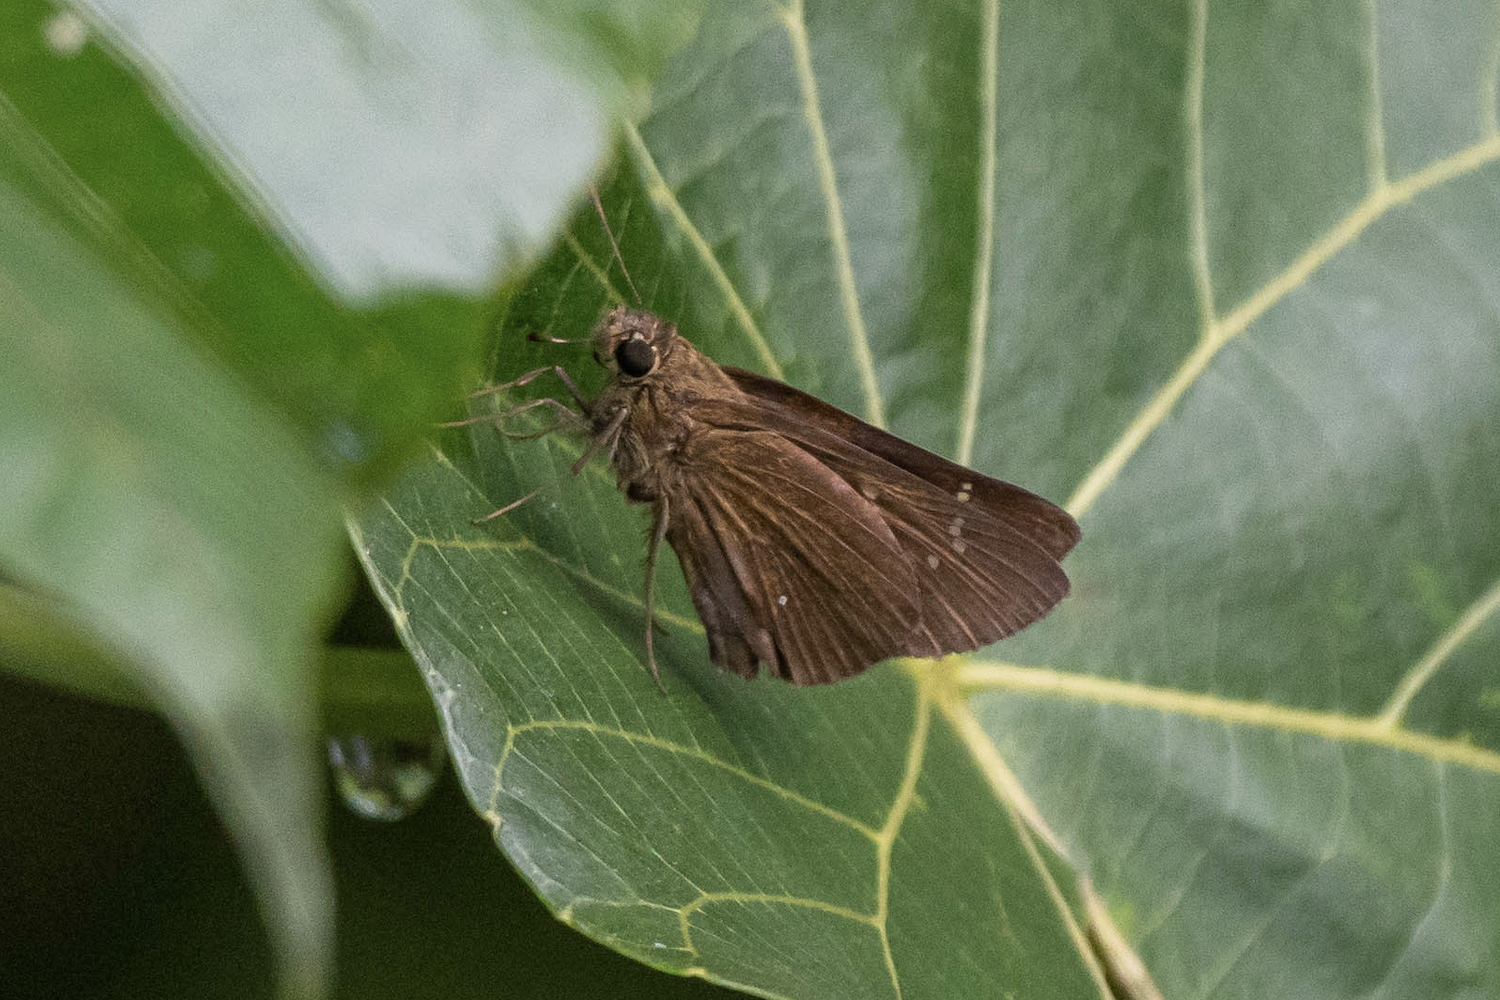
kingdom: Animalia
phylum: Arthropoda
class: Insecta
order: Lepidoptera
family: Hesperiidae
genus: Caltoris
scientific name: Caltoris bromus
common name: Colon swift
